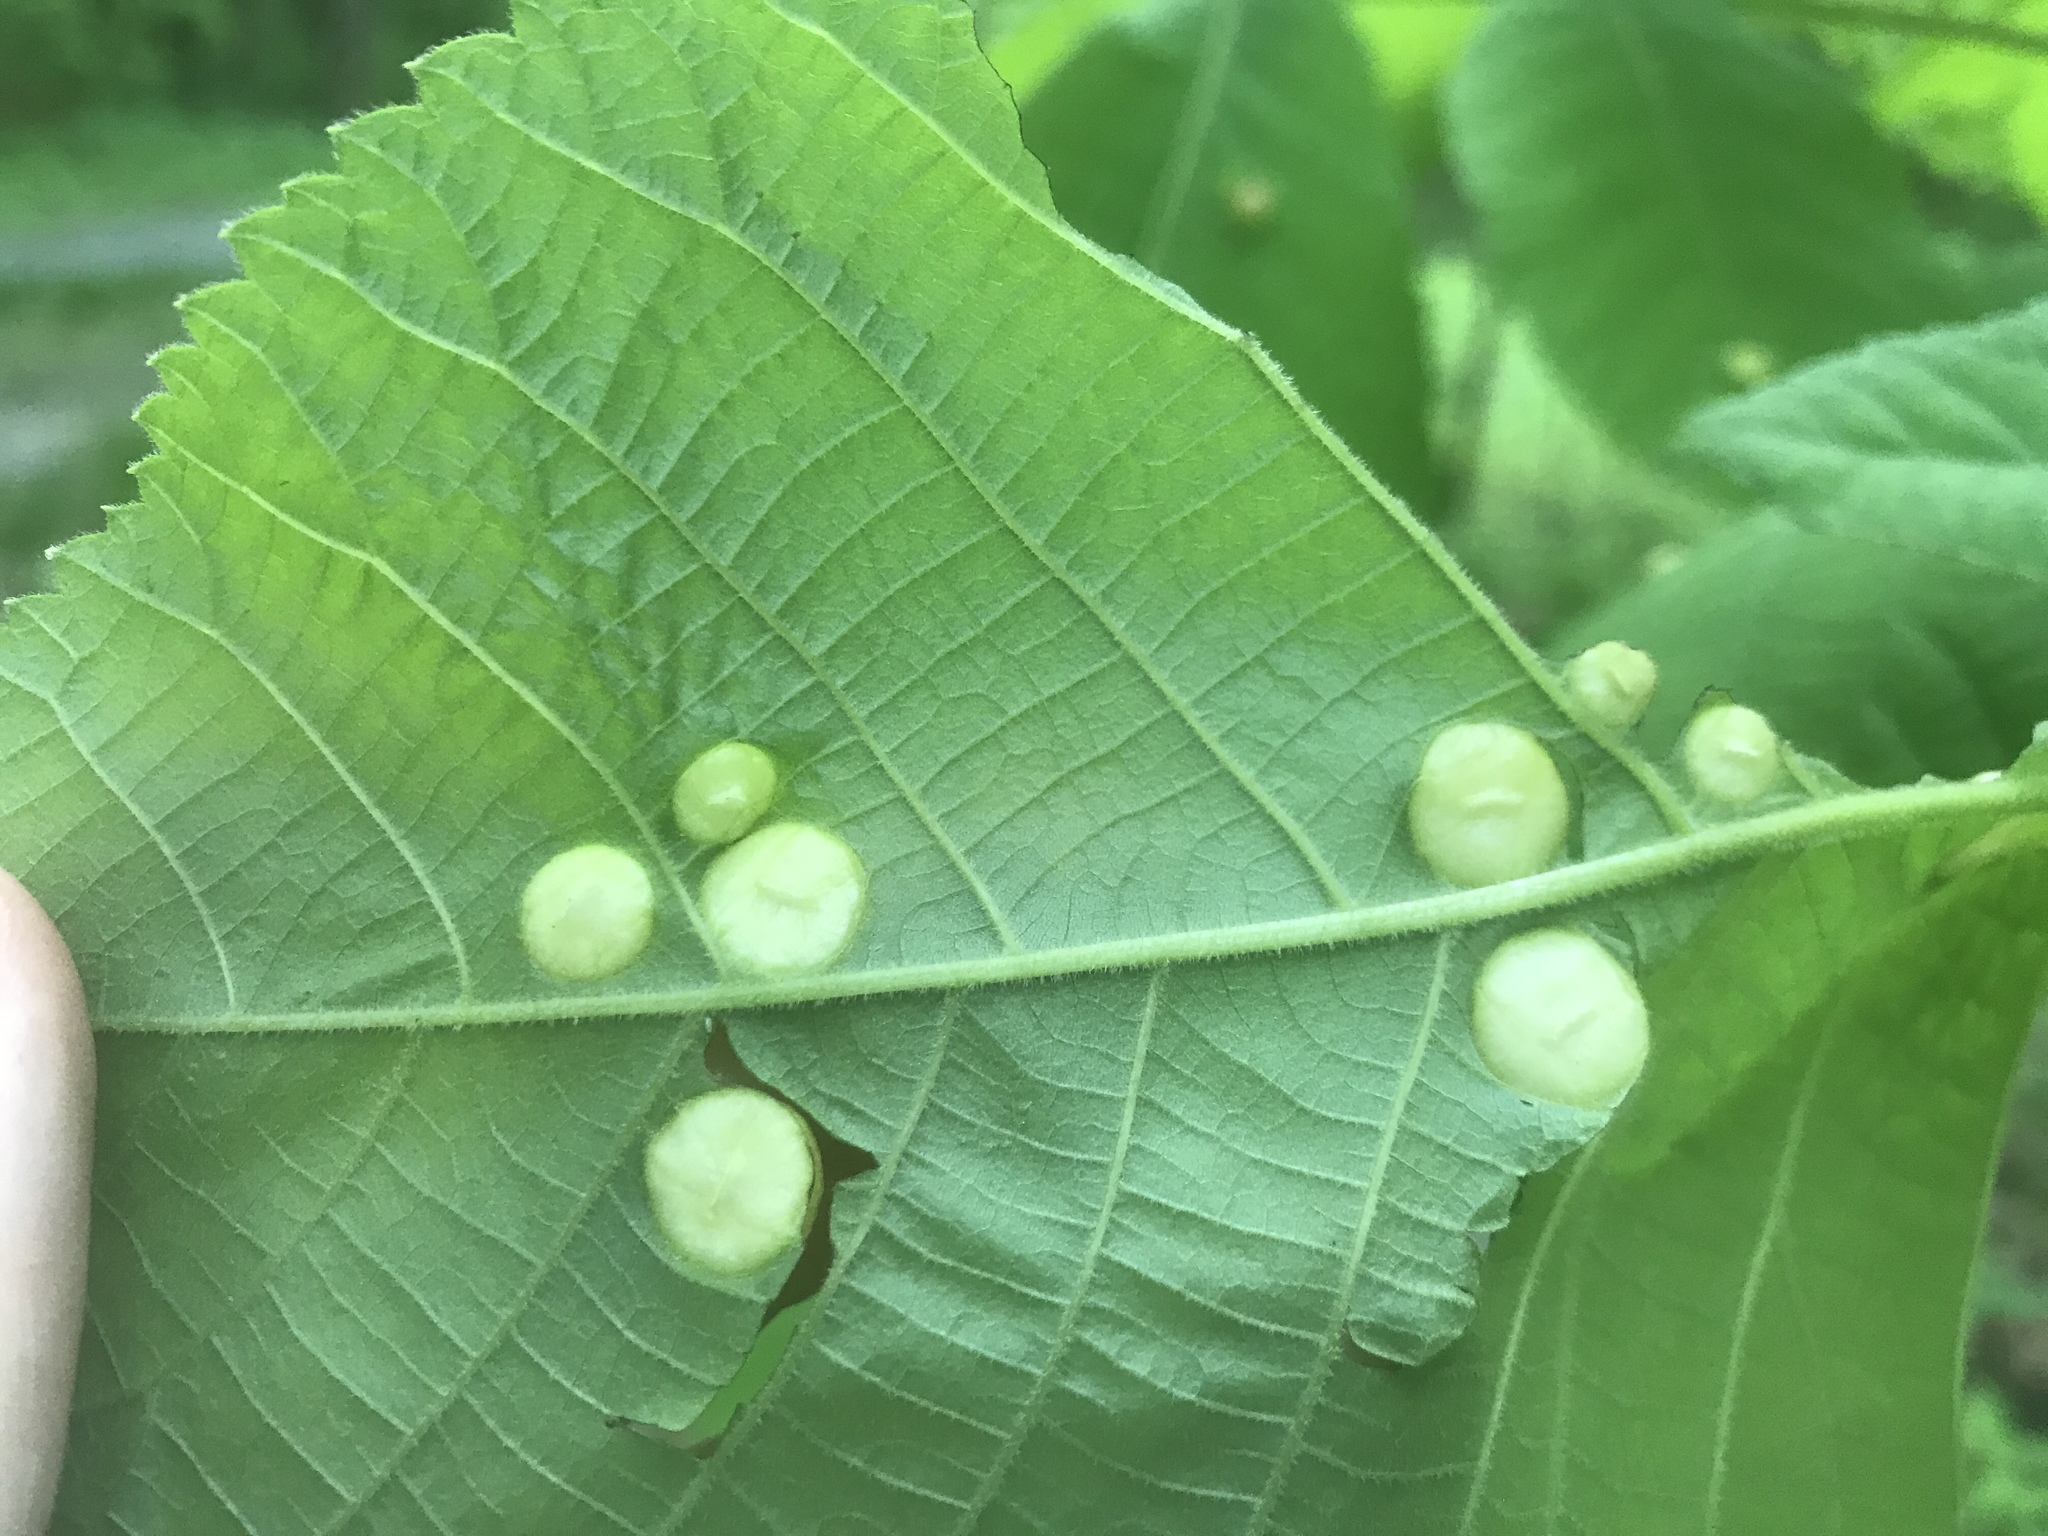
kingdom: Animalia
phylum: Arthropoda
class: Insecta
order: Hemiptera
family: Phylloxeridae
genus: Phylloxera
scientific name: Phylloxera caryae-globuli
